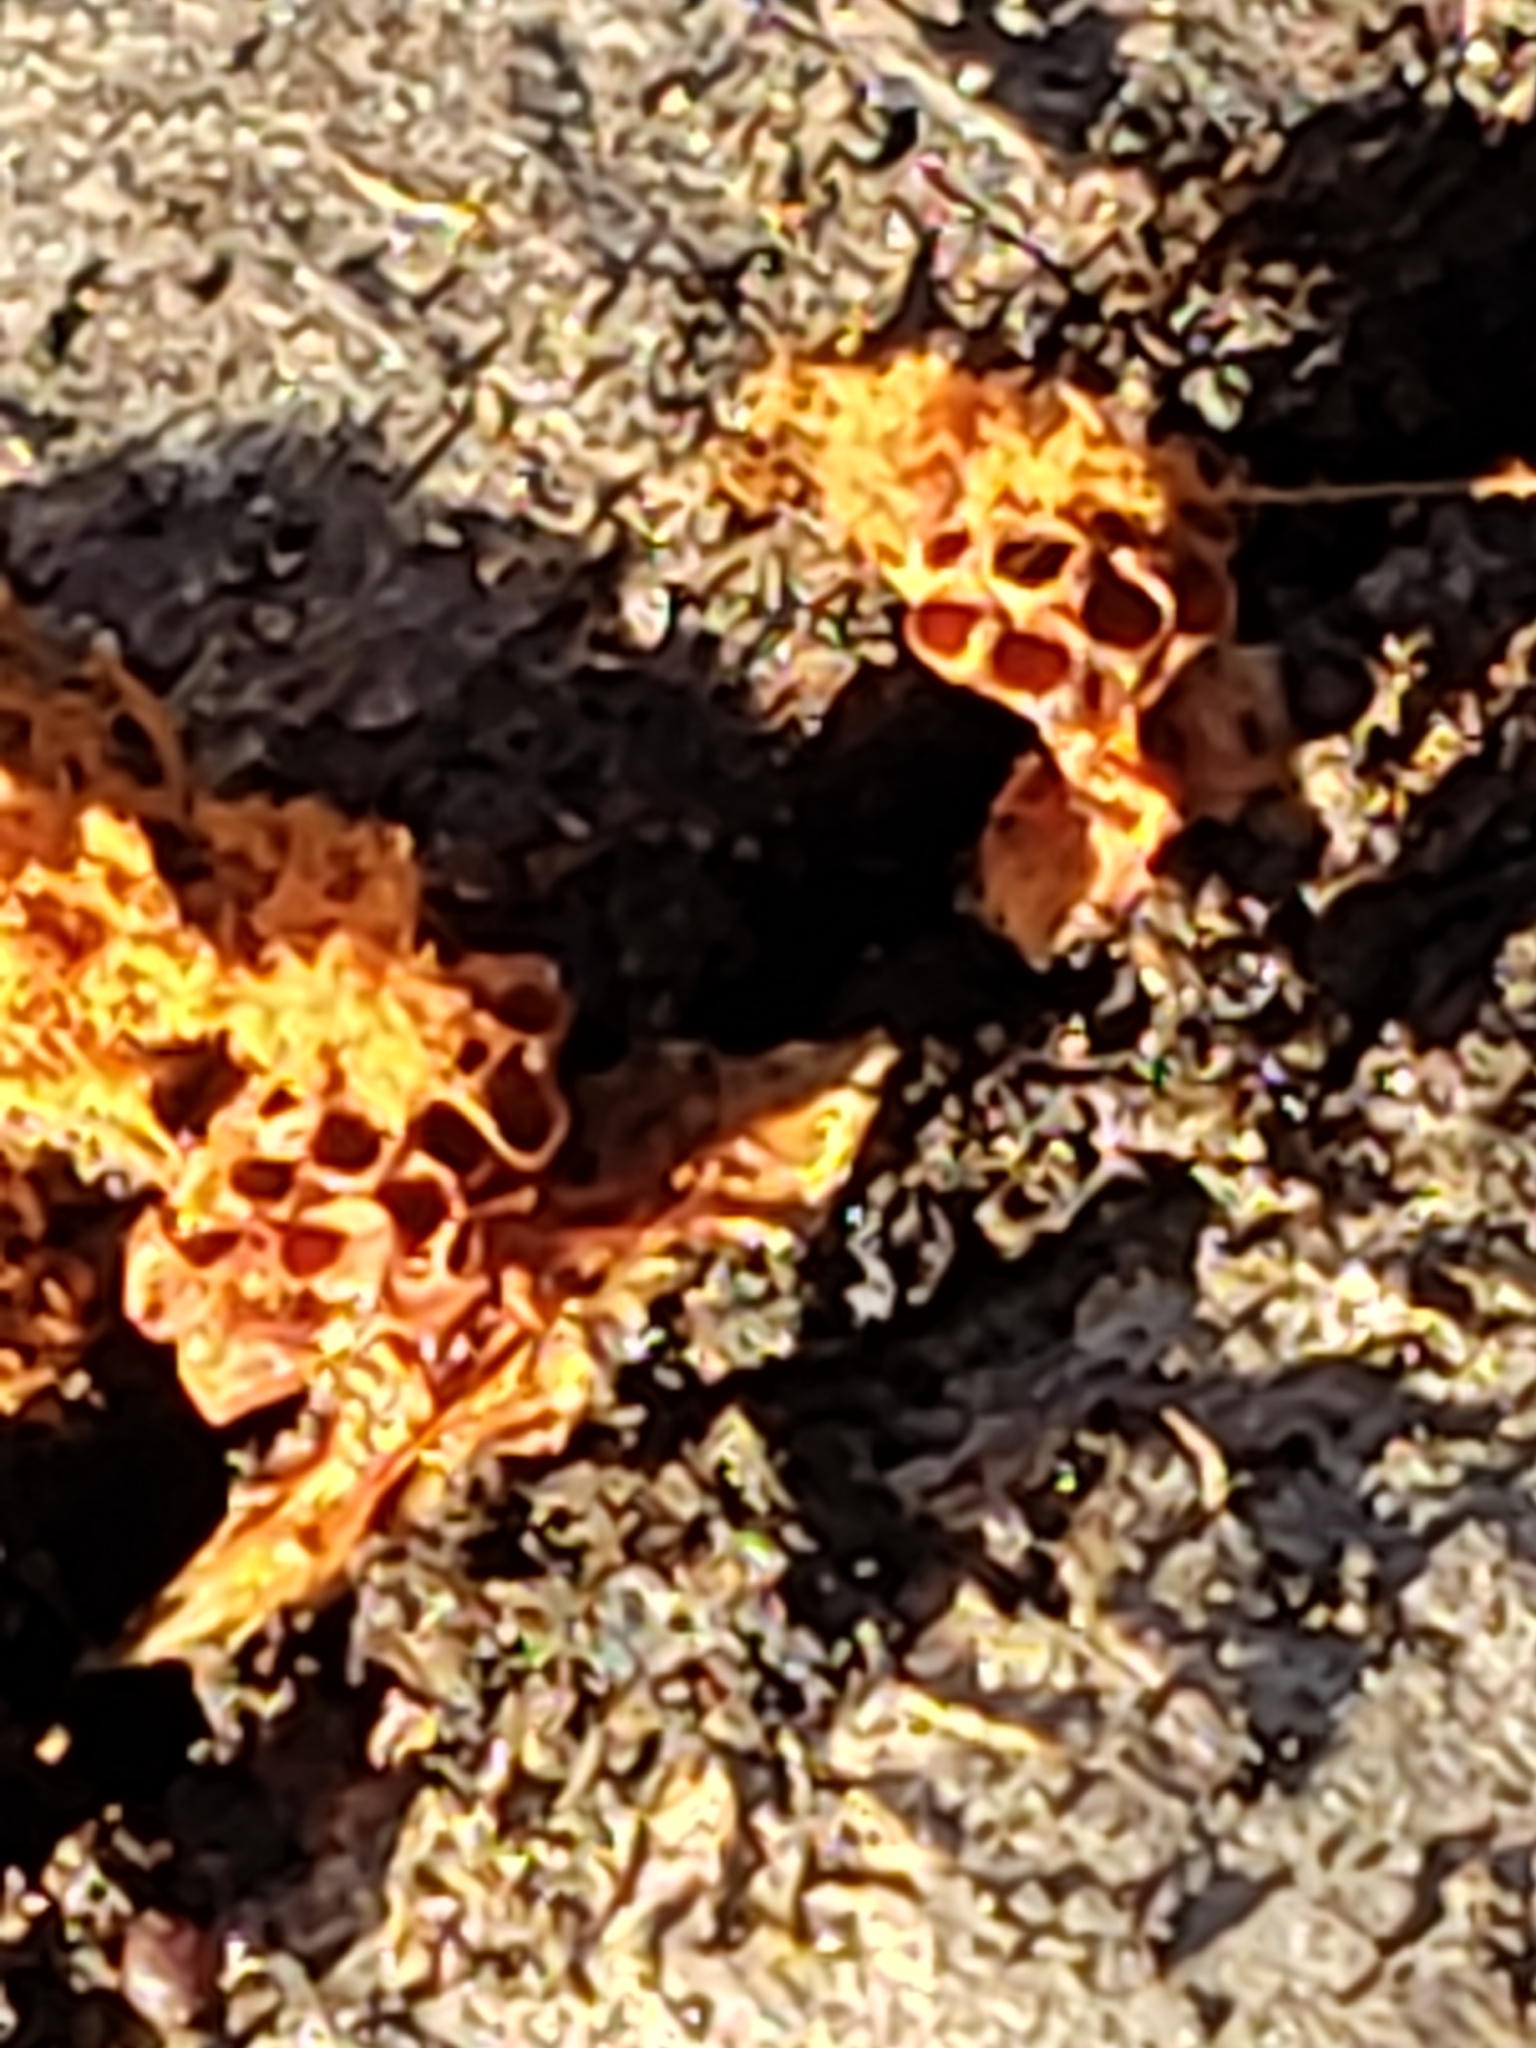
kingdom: Protozoa
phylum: Mycetozoa
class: Myxomycetes
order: Trichiales
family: Trichiaceae
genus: Metatrichia
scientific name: Metatrichia vesparia
